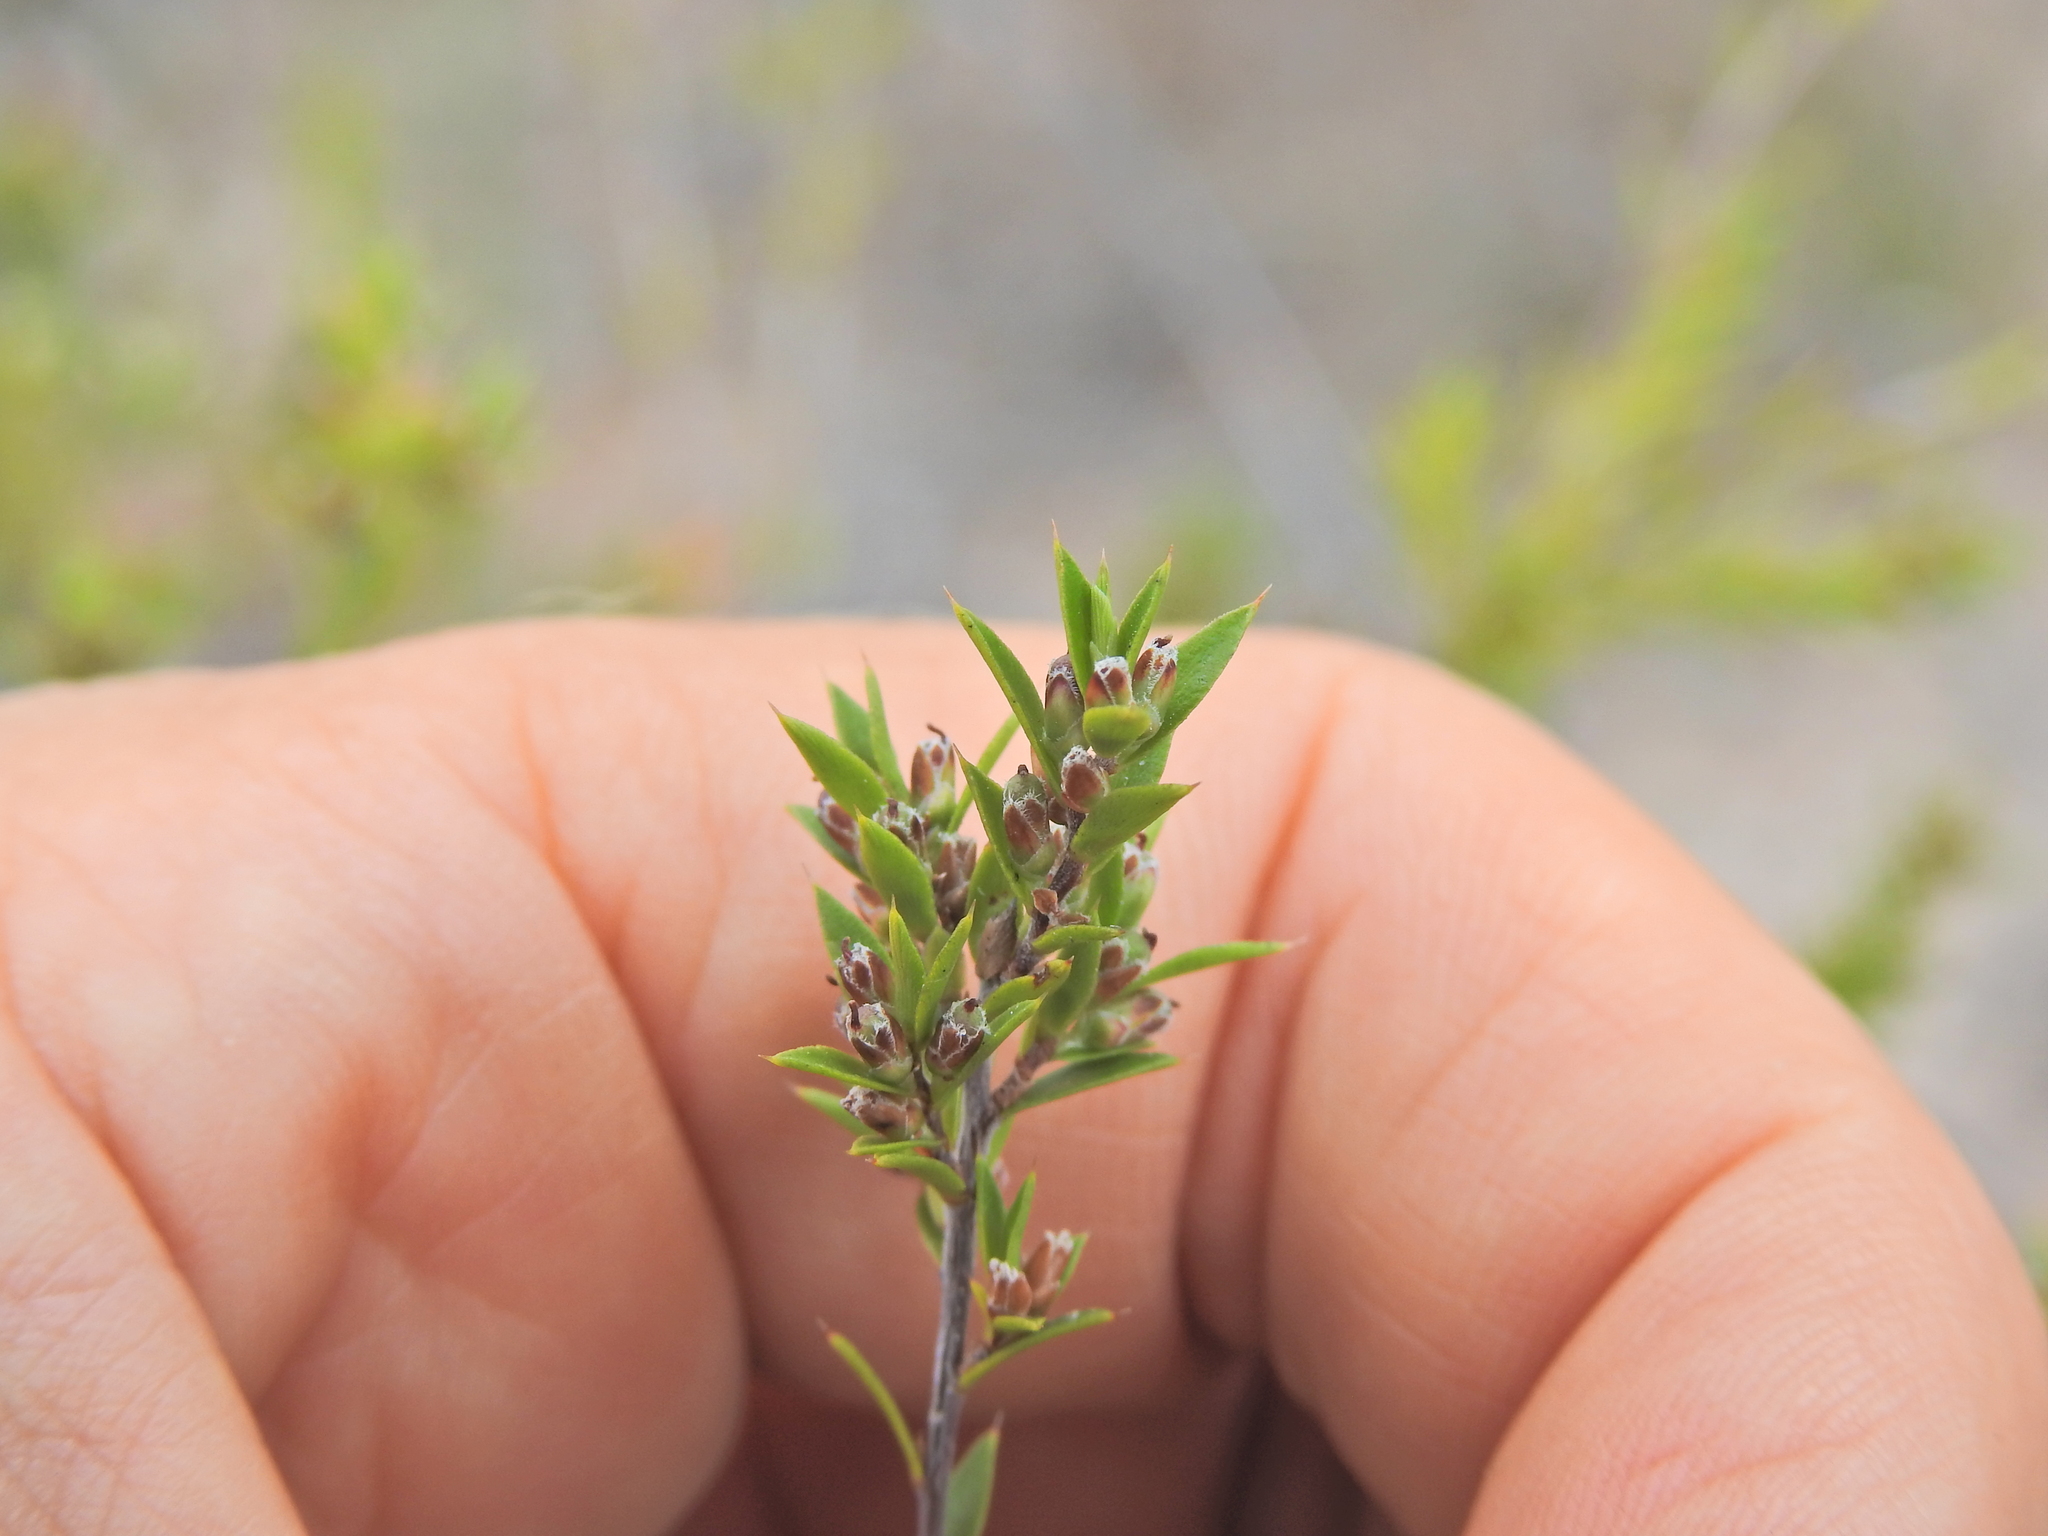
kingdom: Plantae
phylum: Tracheophyta
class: Magnoliopsida
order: Ericales
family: Ericaceae
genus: Styphelia
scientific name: Styphelia
